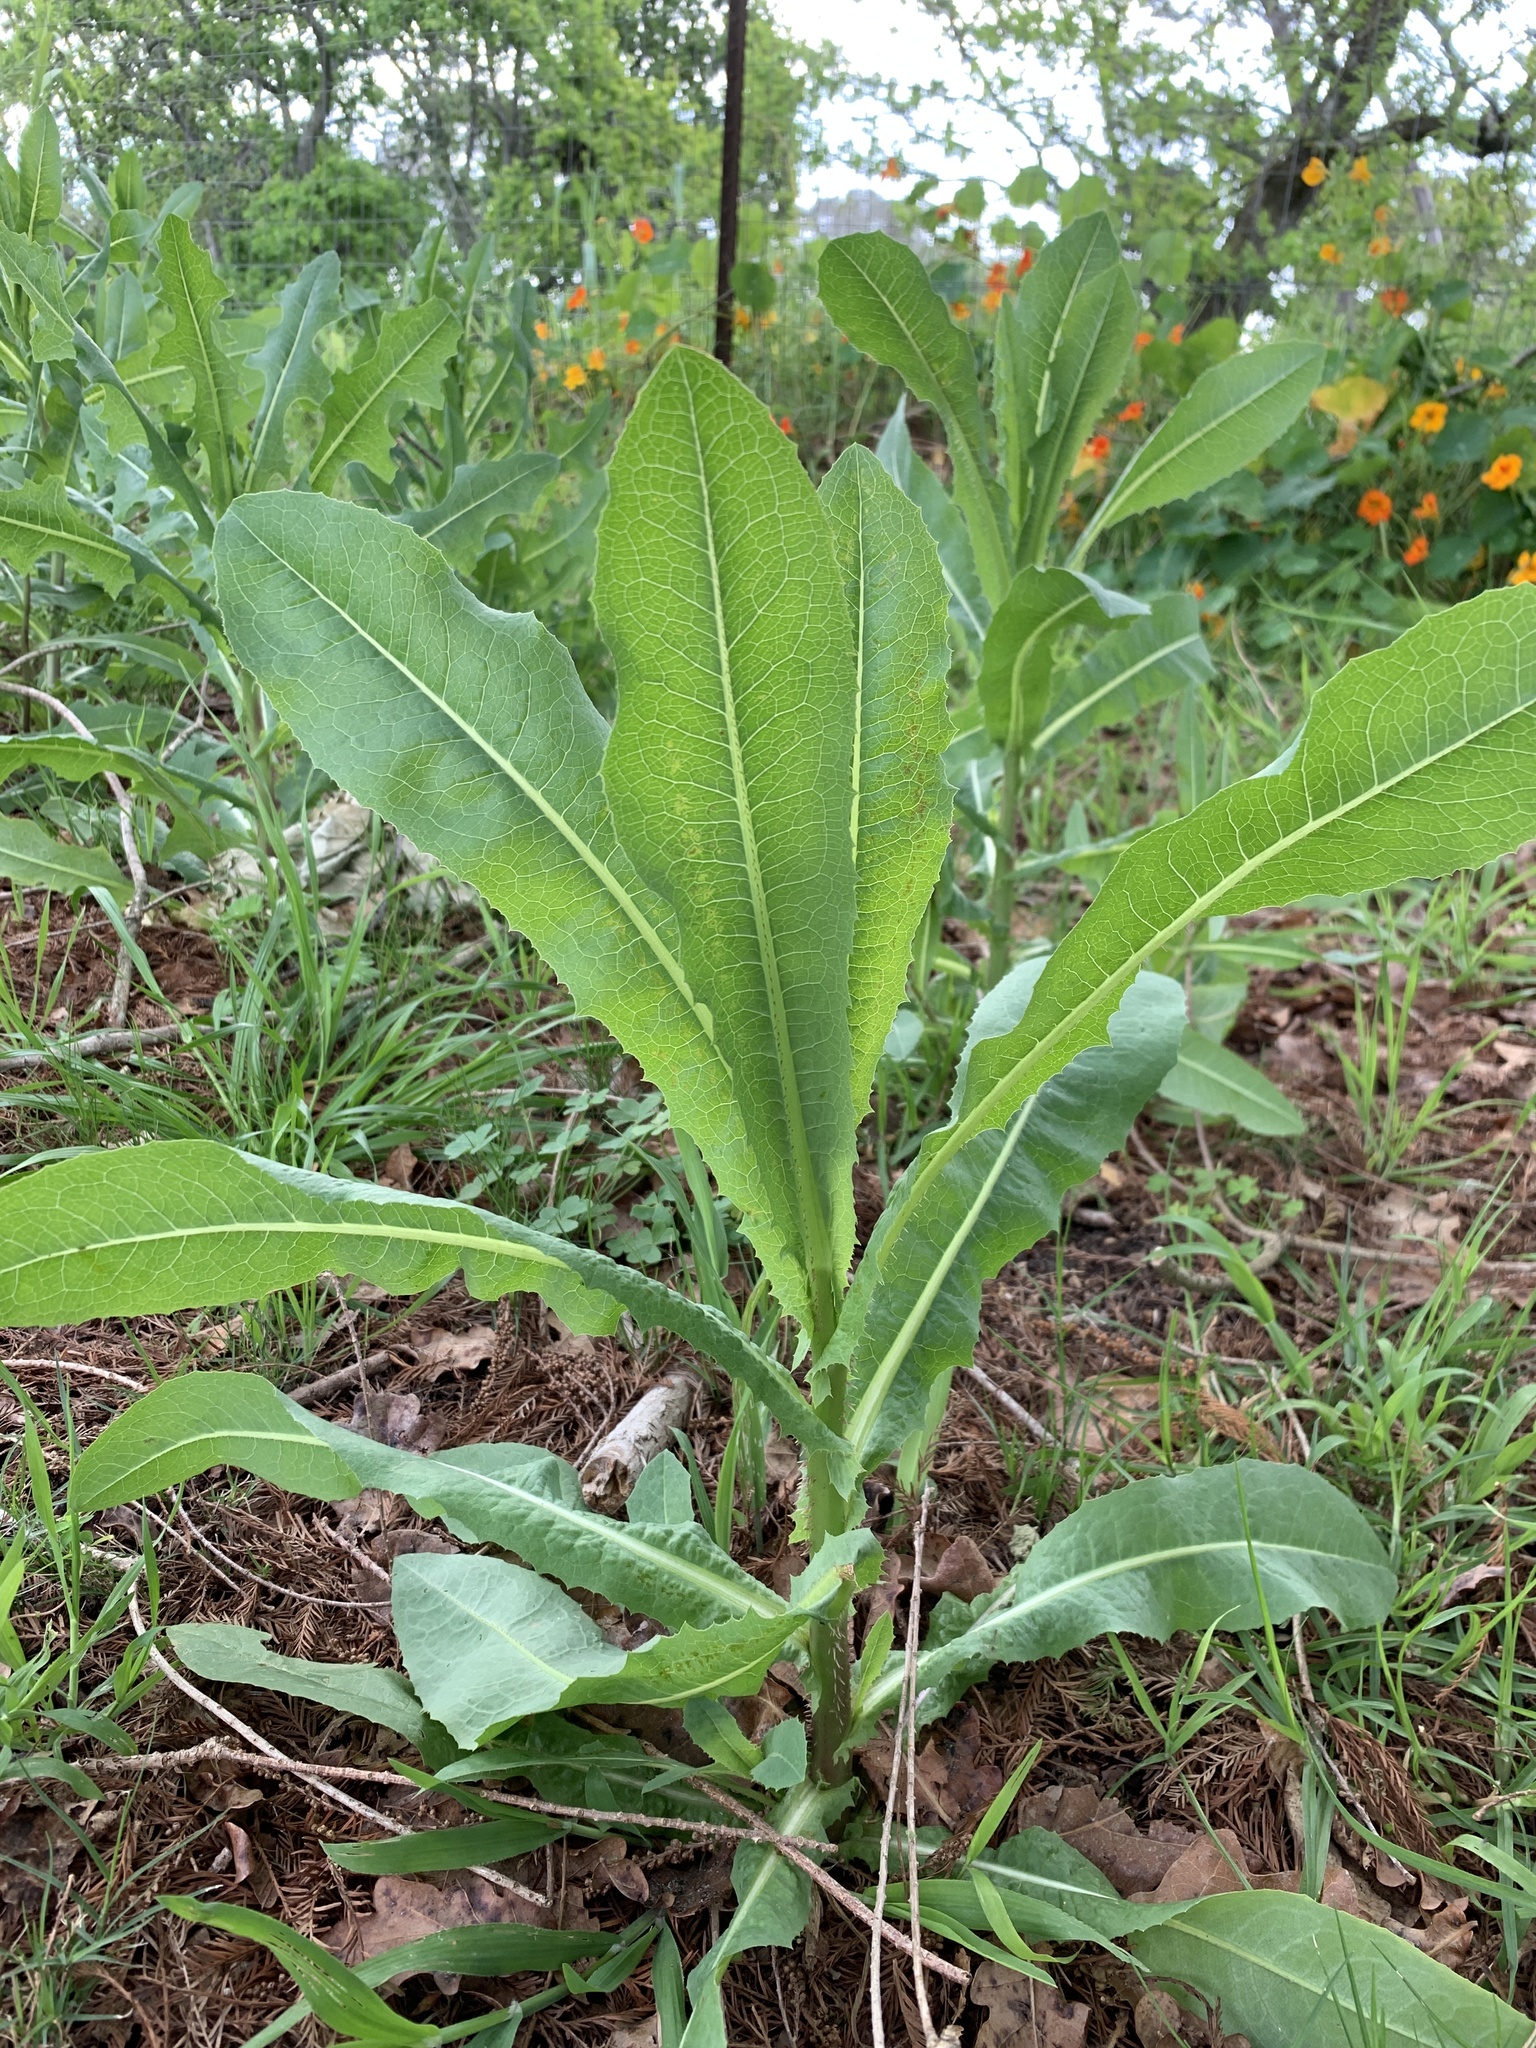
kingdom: Plantae
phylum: Tracheophyta
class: Magnoliopsida
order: Asterales
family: Asteraceae
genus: Lactuca
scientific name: Lactuca serriola
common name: Prickly lettuce
